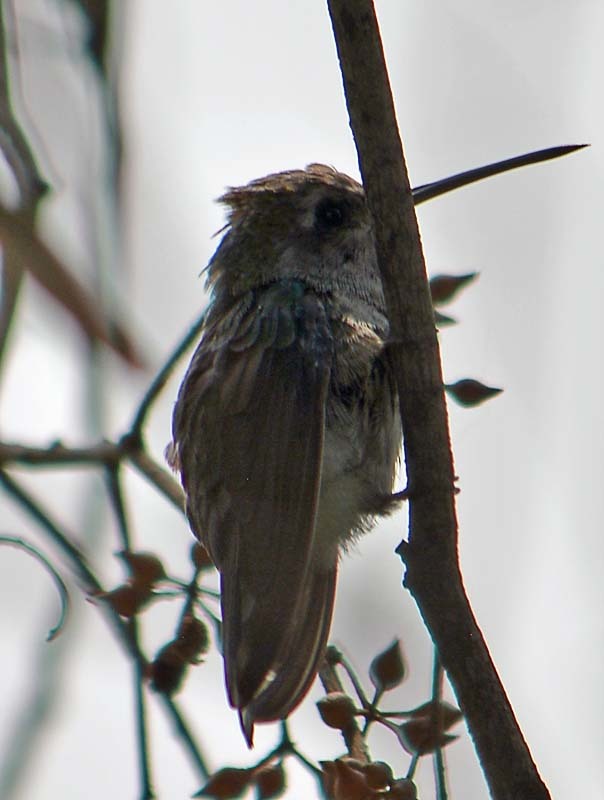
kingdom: Animalia
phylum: Chordata
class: Aves
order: Apodiformes
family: Trochilidae
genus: Cynanthus
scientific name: Cynanthus latirostris
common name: Broad-billed hummingbird
